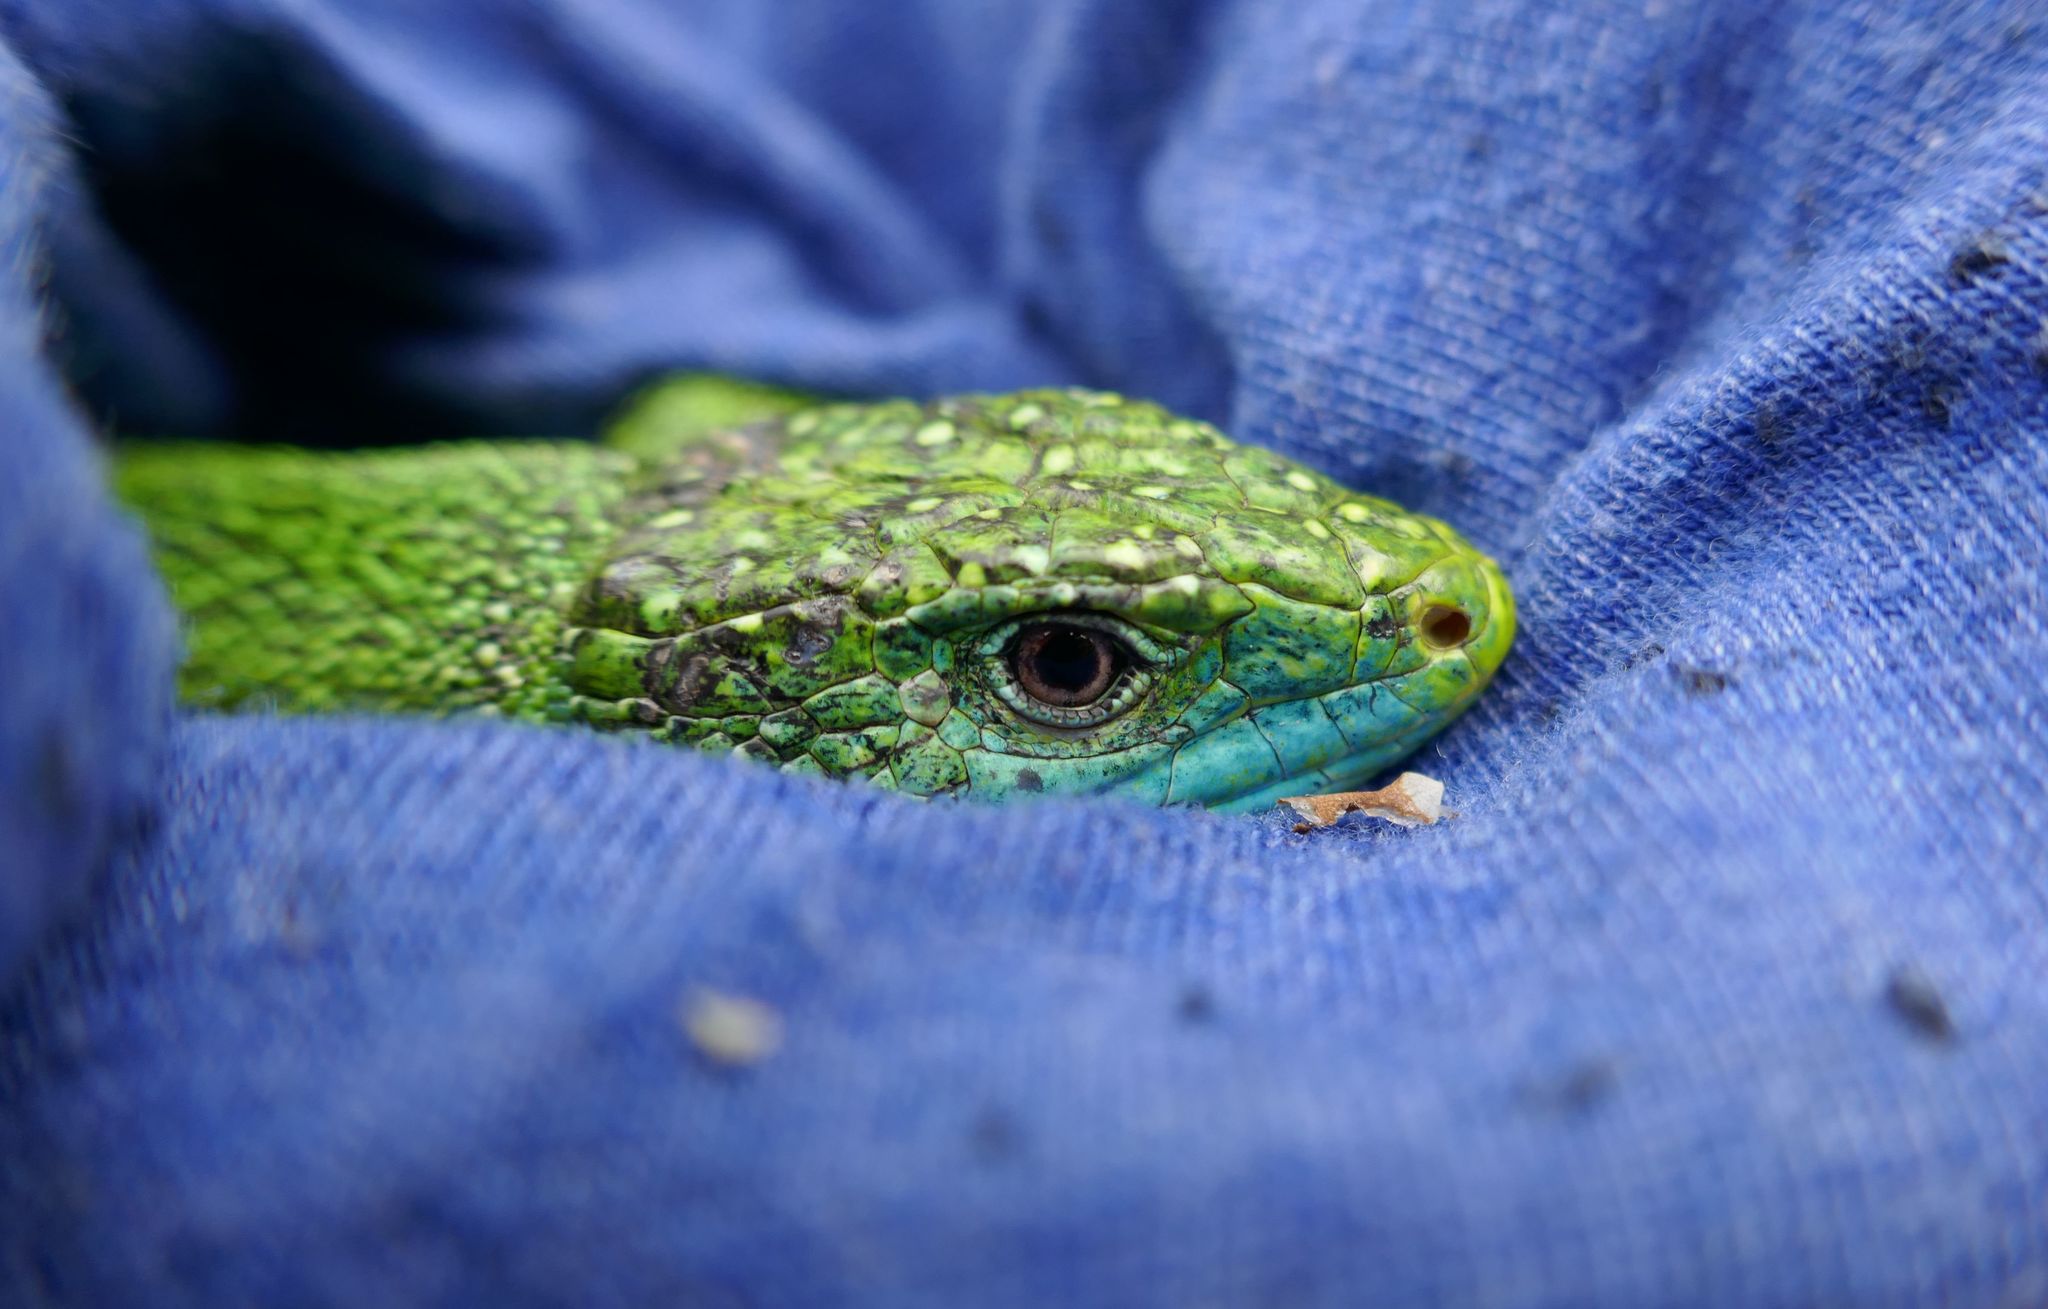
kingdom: Animalia
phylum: Chordata
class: Squamata
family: Lacertidae
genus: Lacerta
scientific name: Lacerta bilineata
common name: Western green lizard
